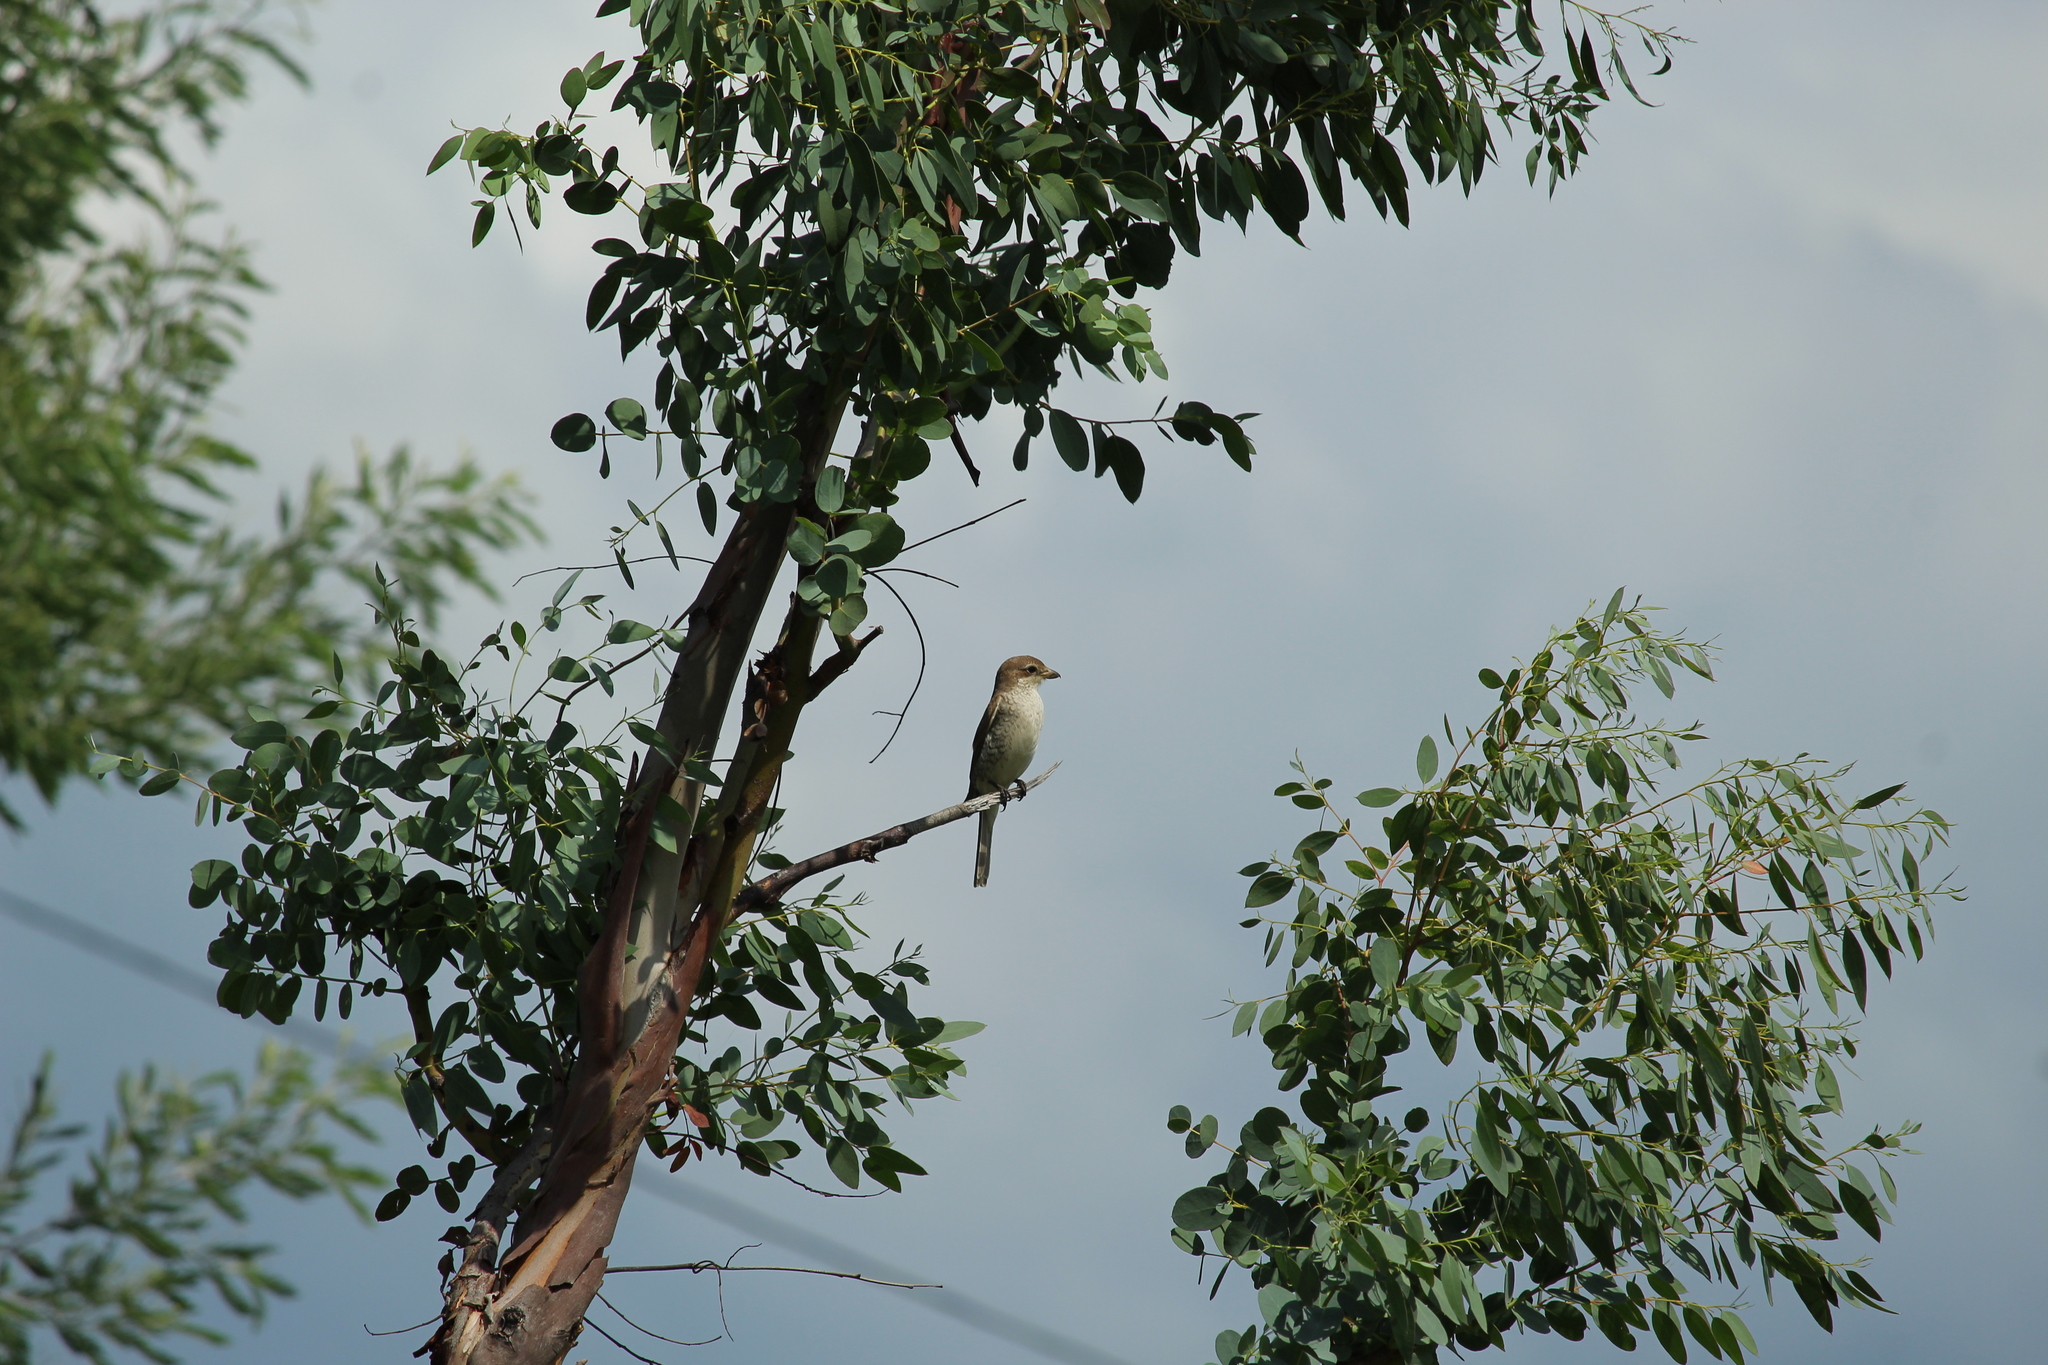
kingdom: Animalia
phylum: Chordata
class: Aves
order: Passeriformes
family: Laniidae
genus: Lanius
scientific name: Lanius collurio
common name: Red-backed shrike
